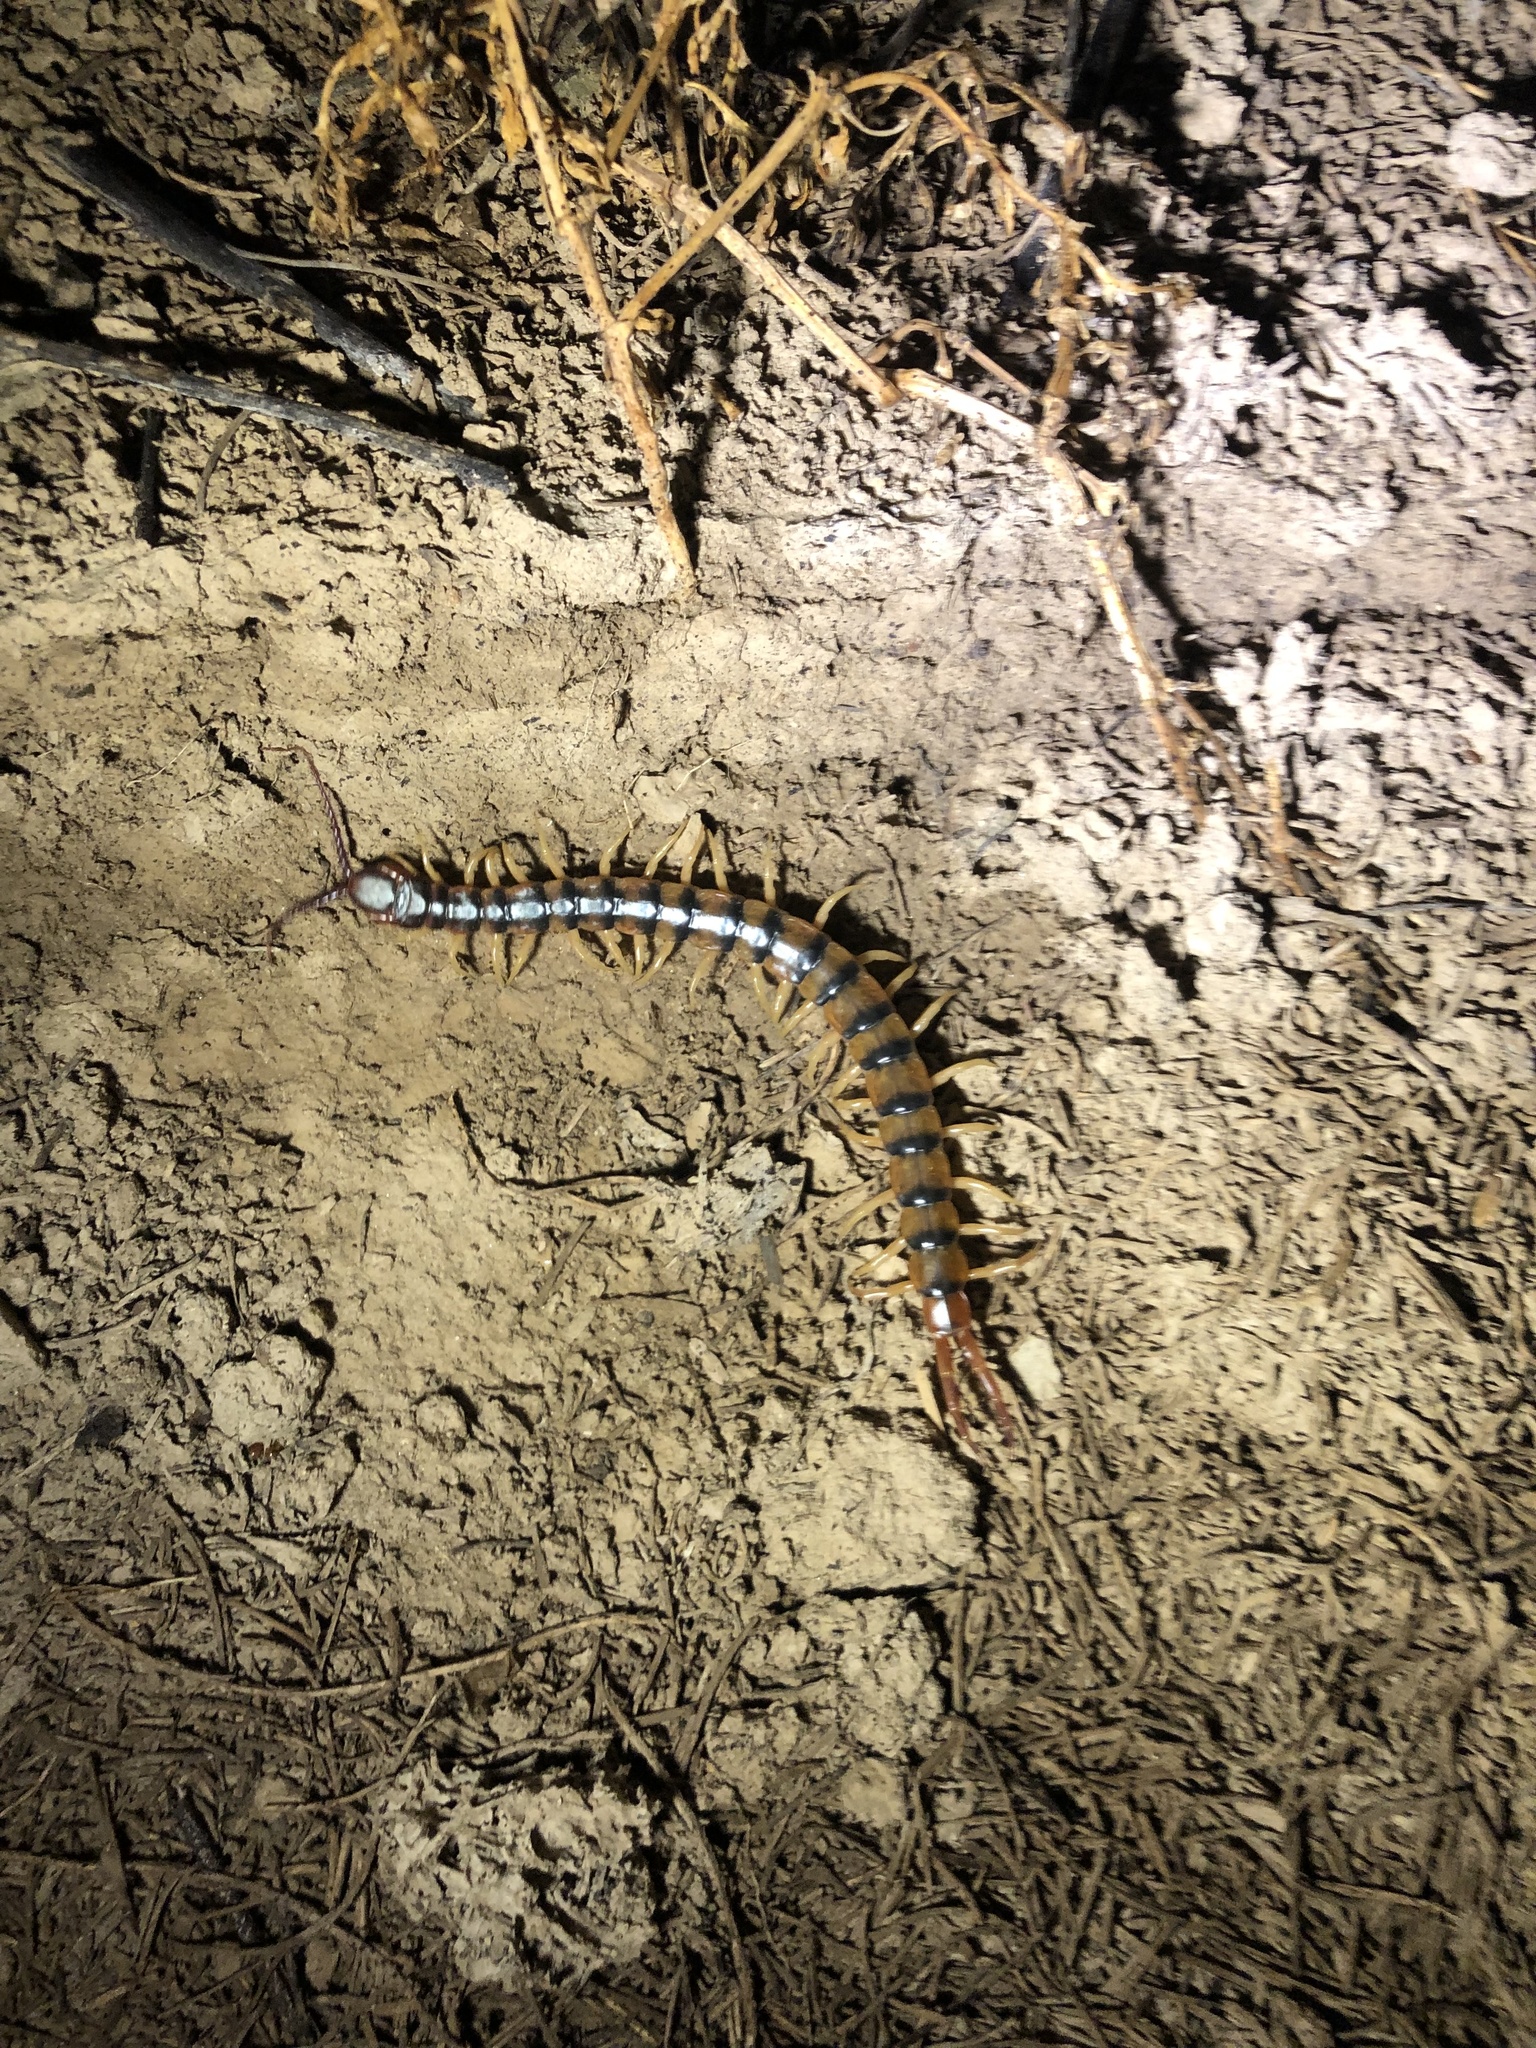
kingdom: Animalia
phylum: Arthropoda
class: Chilopoda
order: Scolopendromorpha
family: Scolopendridae
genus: Scolopendra
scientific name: Scolopendra polymorpha
